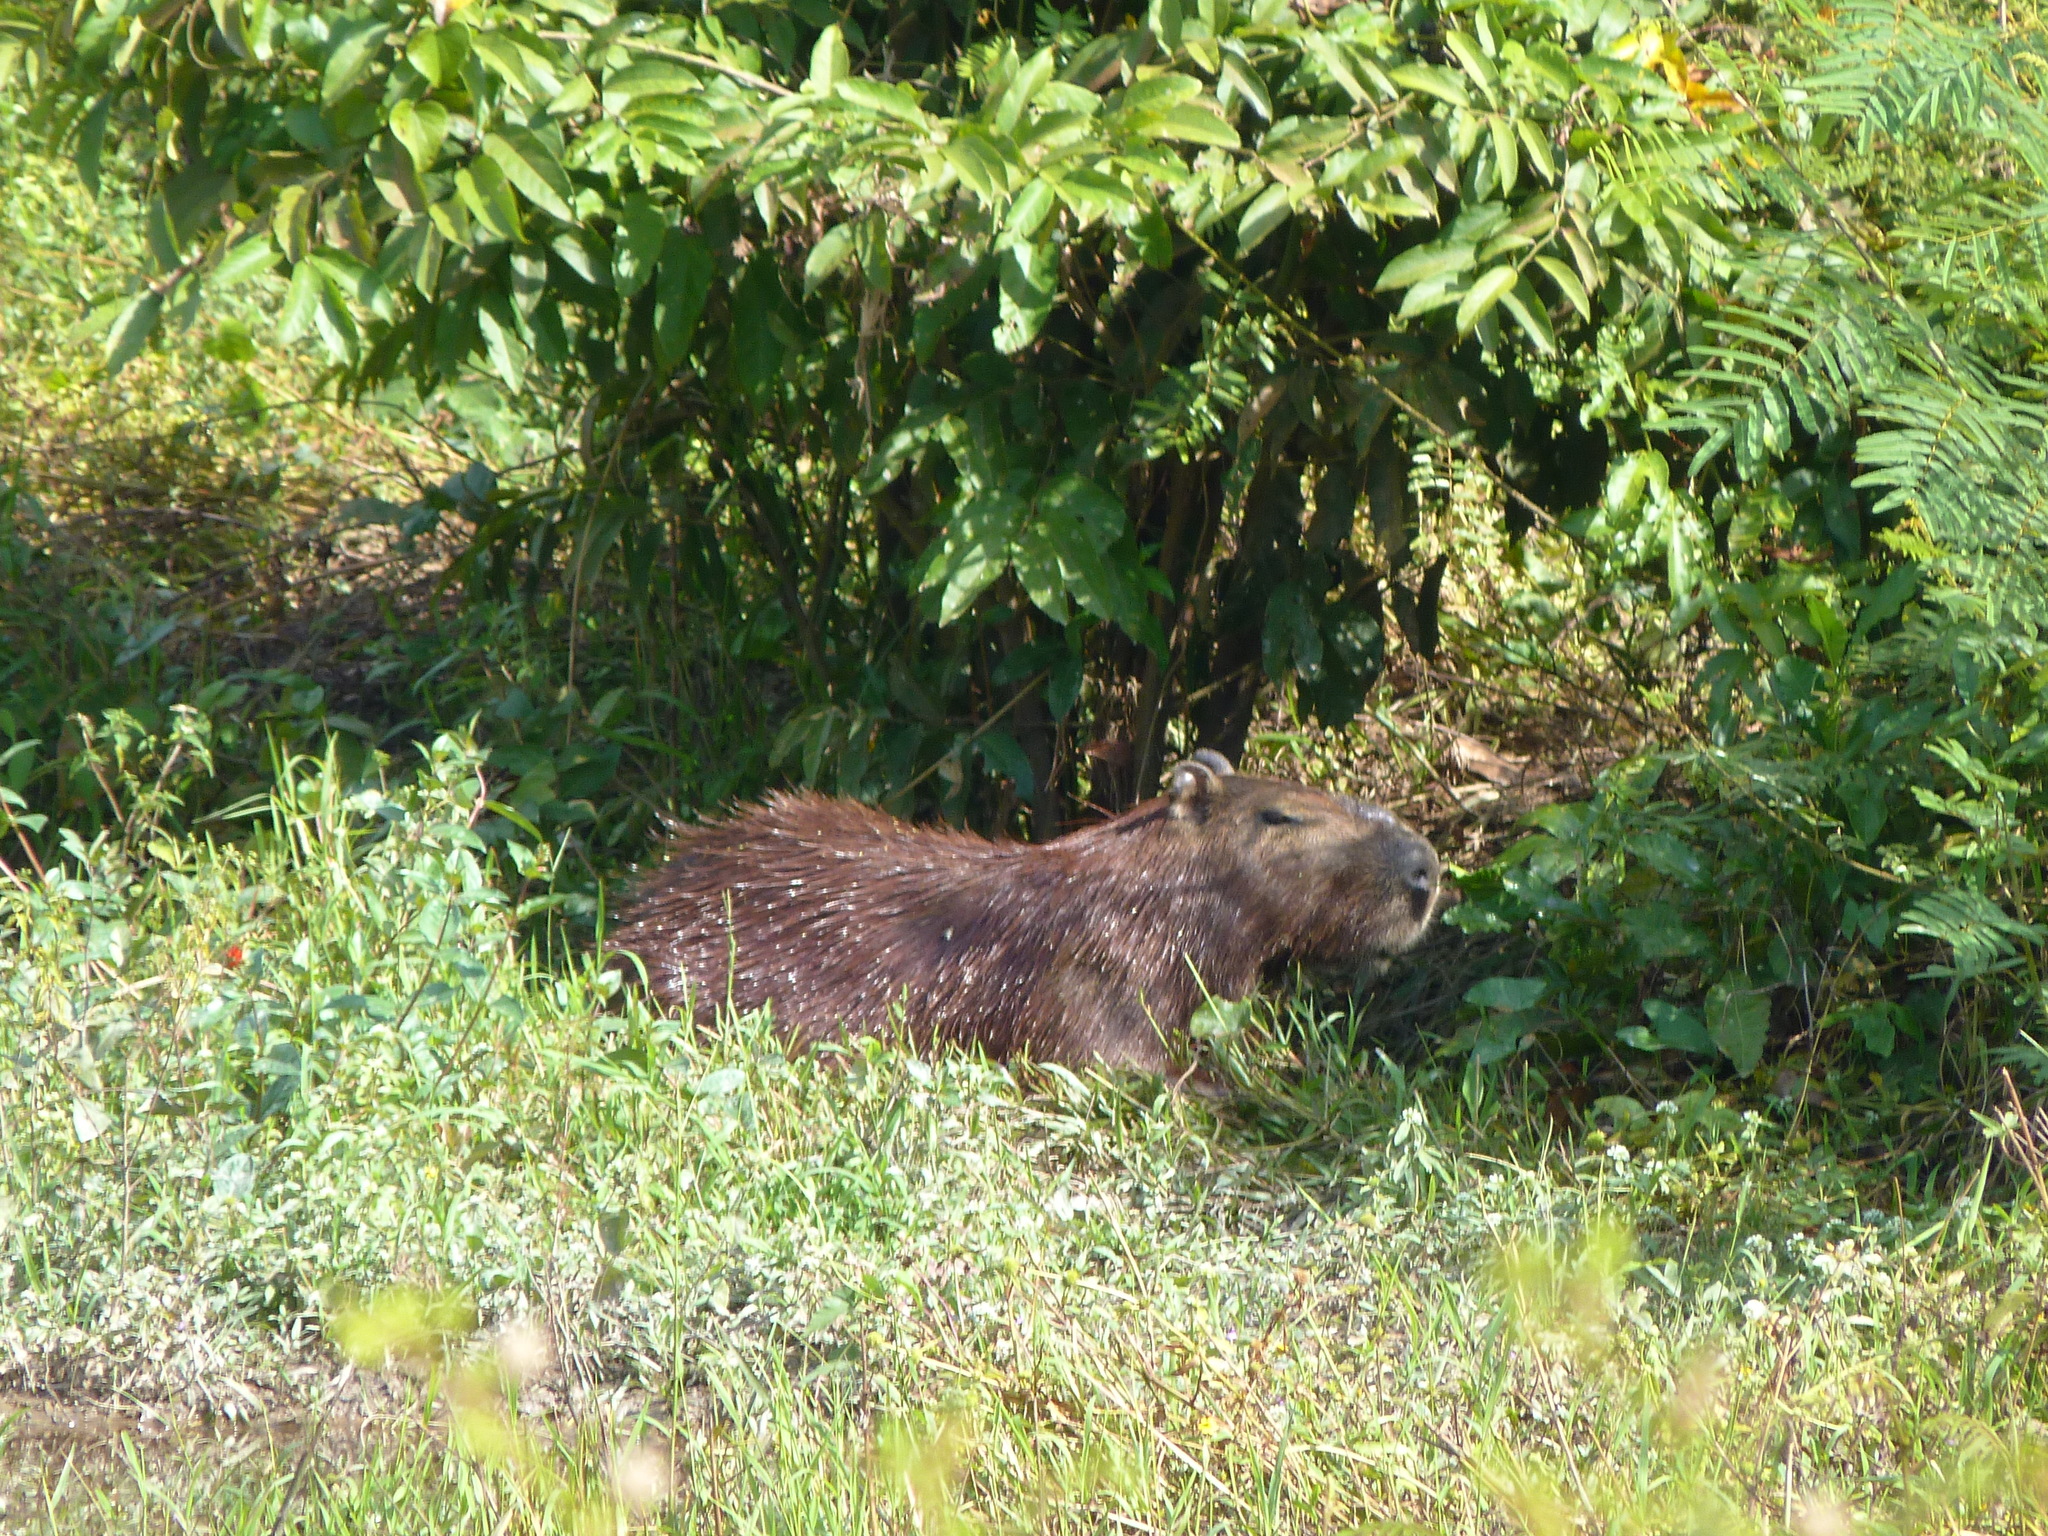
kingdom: Animalia
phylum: Chordata
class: Mammalia
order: Rodentia
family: Caviidae
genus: Hydrochoerus
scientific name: Hydrochoerus hydrochaeris
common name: Capybara
